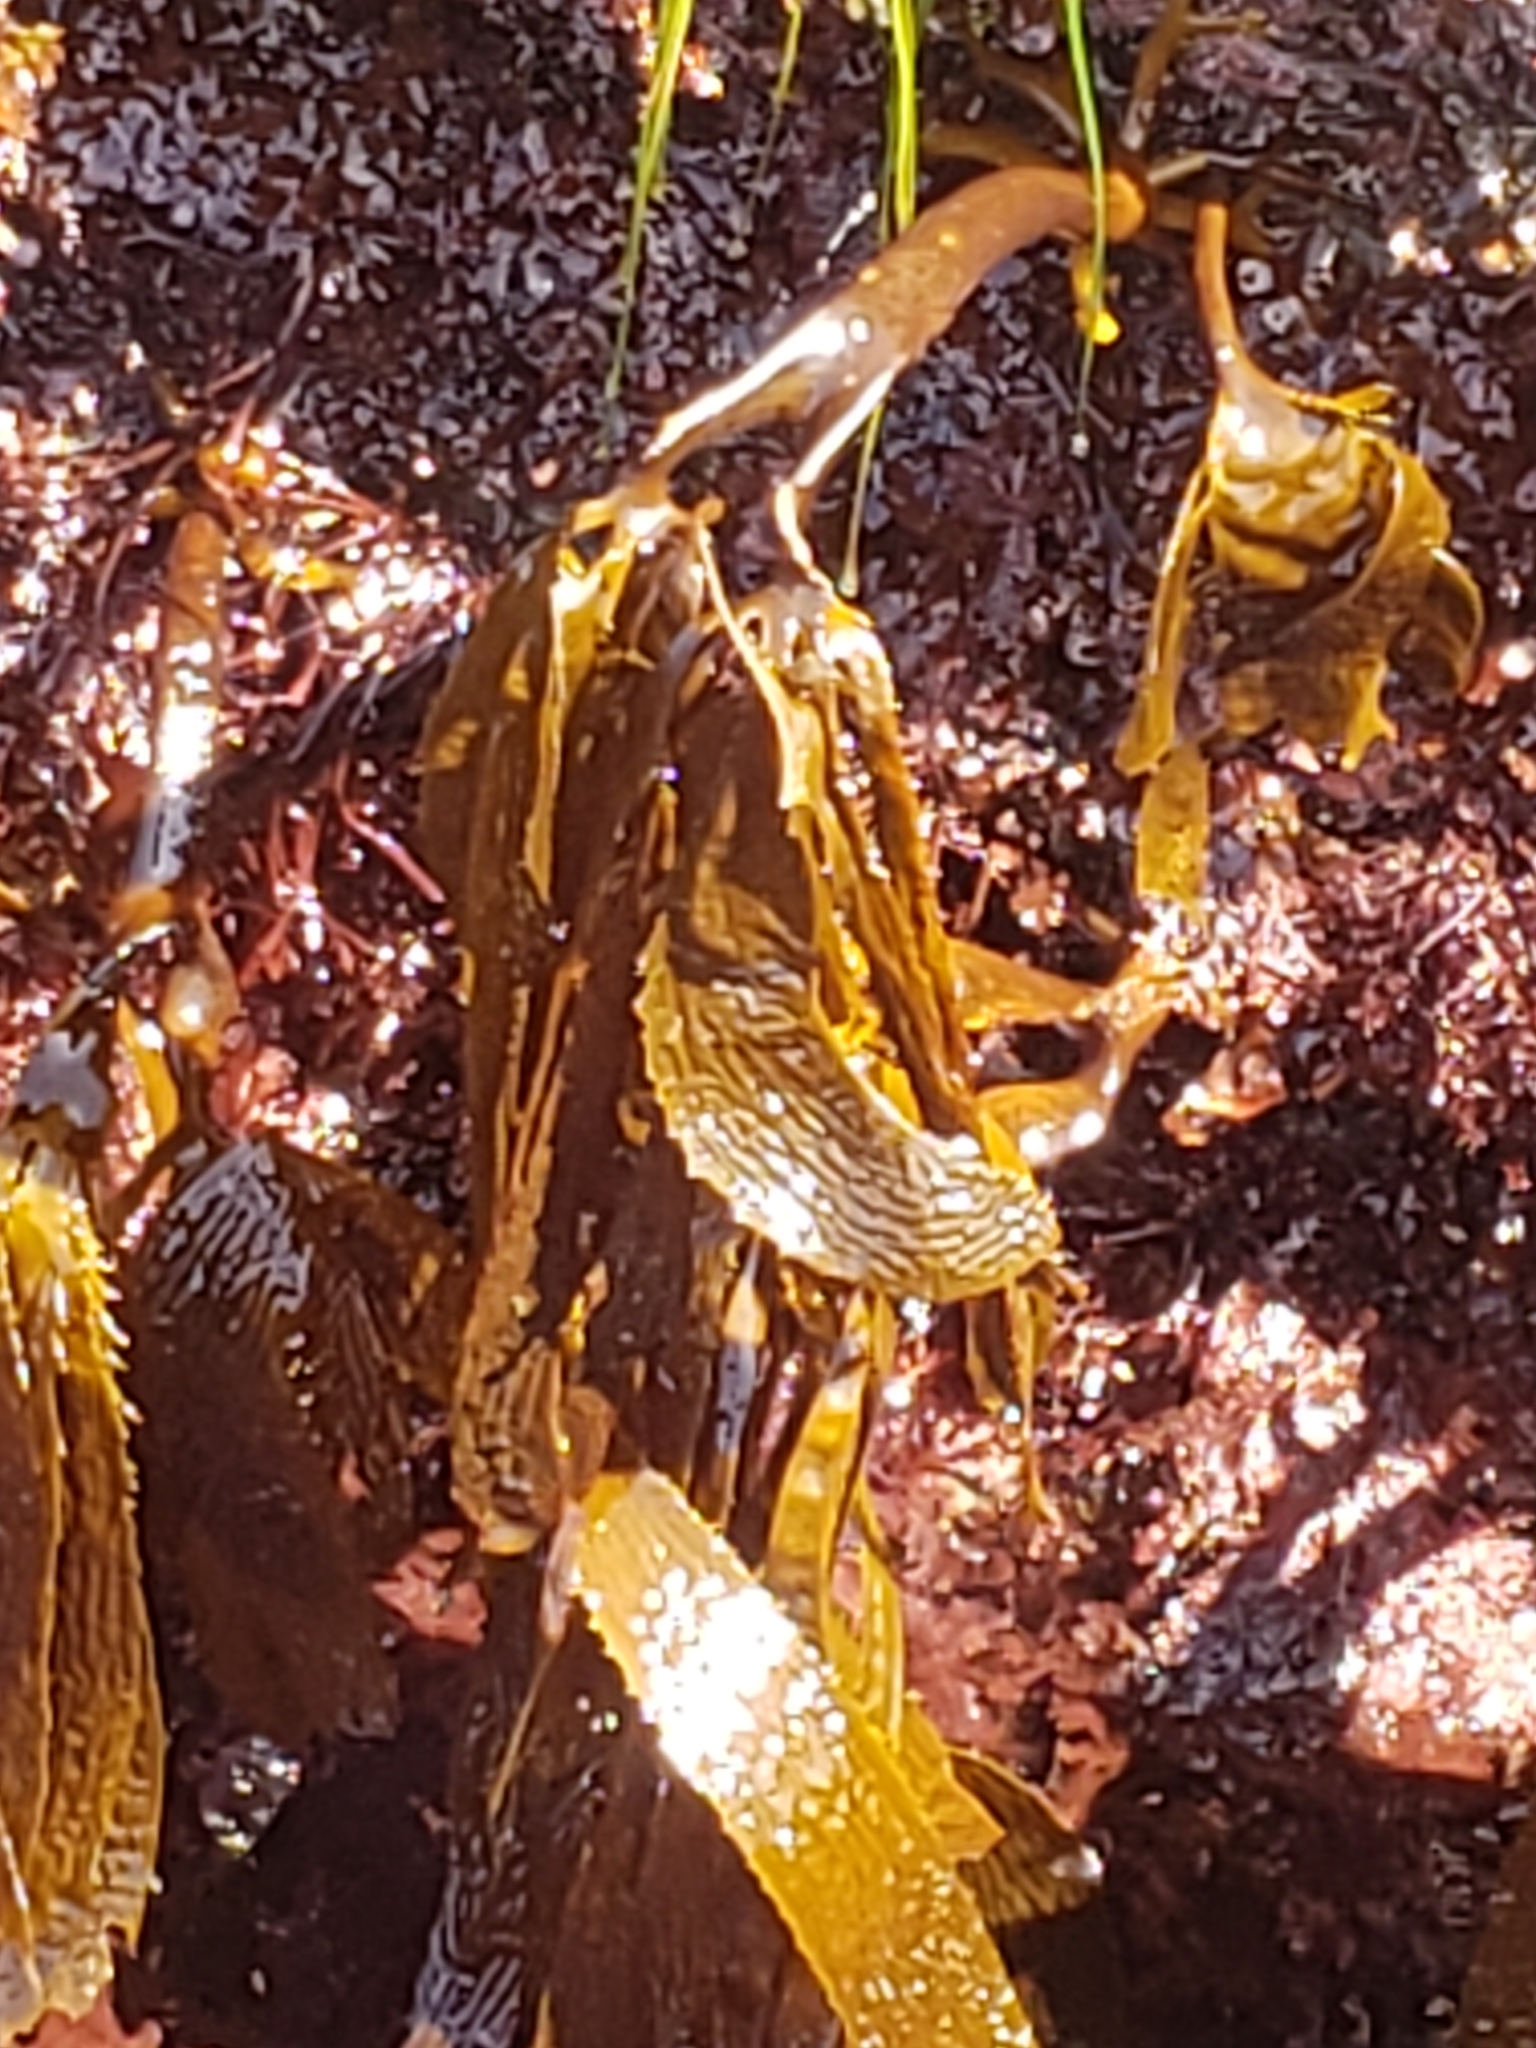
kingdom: Chromista
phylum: Ochrophyta
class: Phaeophyceae
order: Laminariales
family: Lessoniaceae
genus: Eisenia
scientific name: Eisenia arborea
